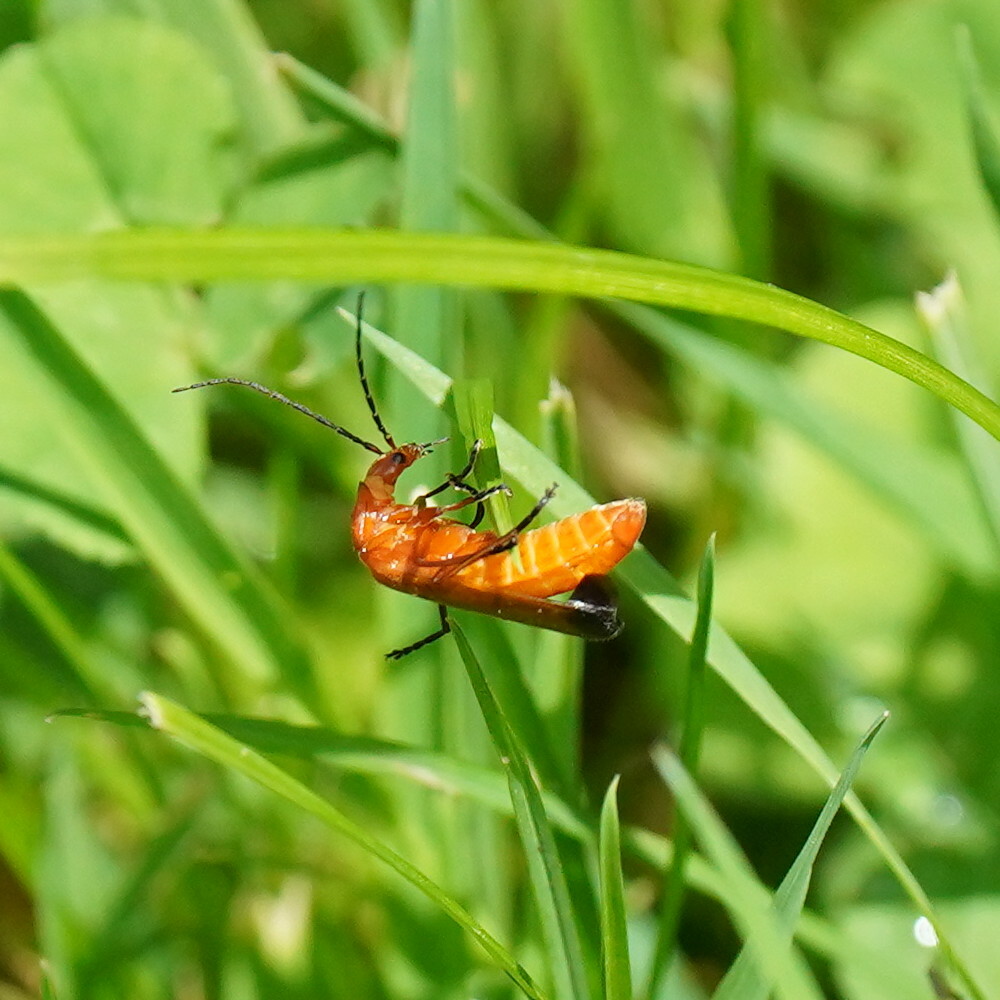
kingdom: Animalia
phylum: Arthropoda
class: Insecta
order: Coleoptera
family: Cantharidae
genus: Rhagonycha
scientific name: Rhagonycha fulva
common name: Common red soldier beetle
